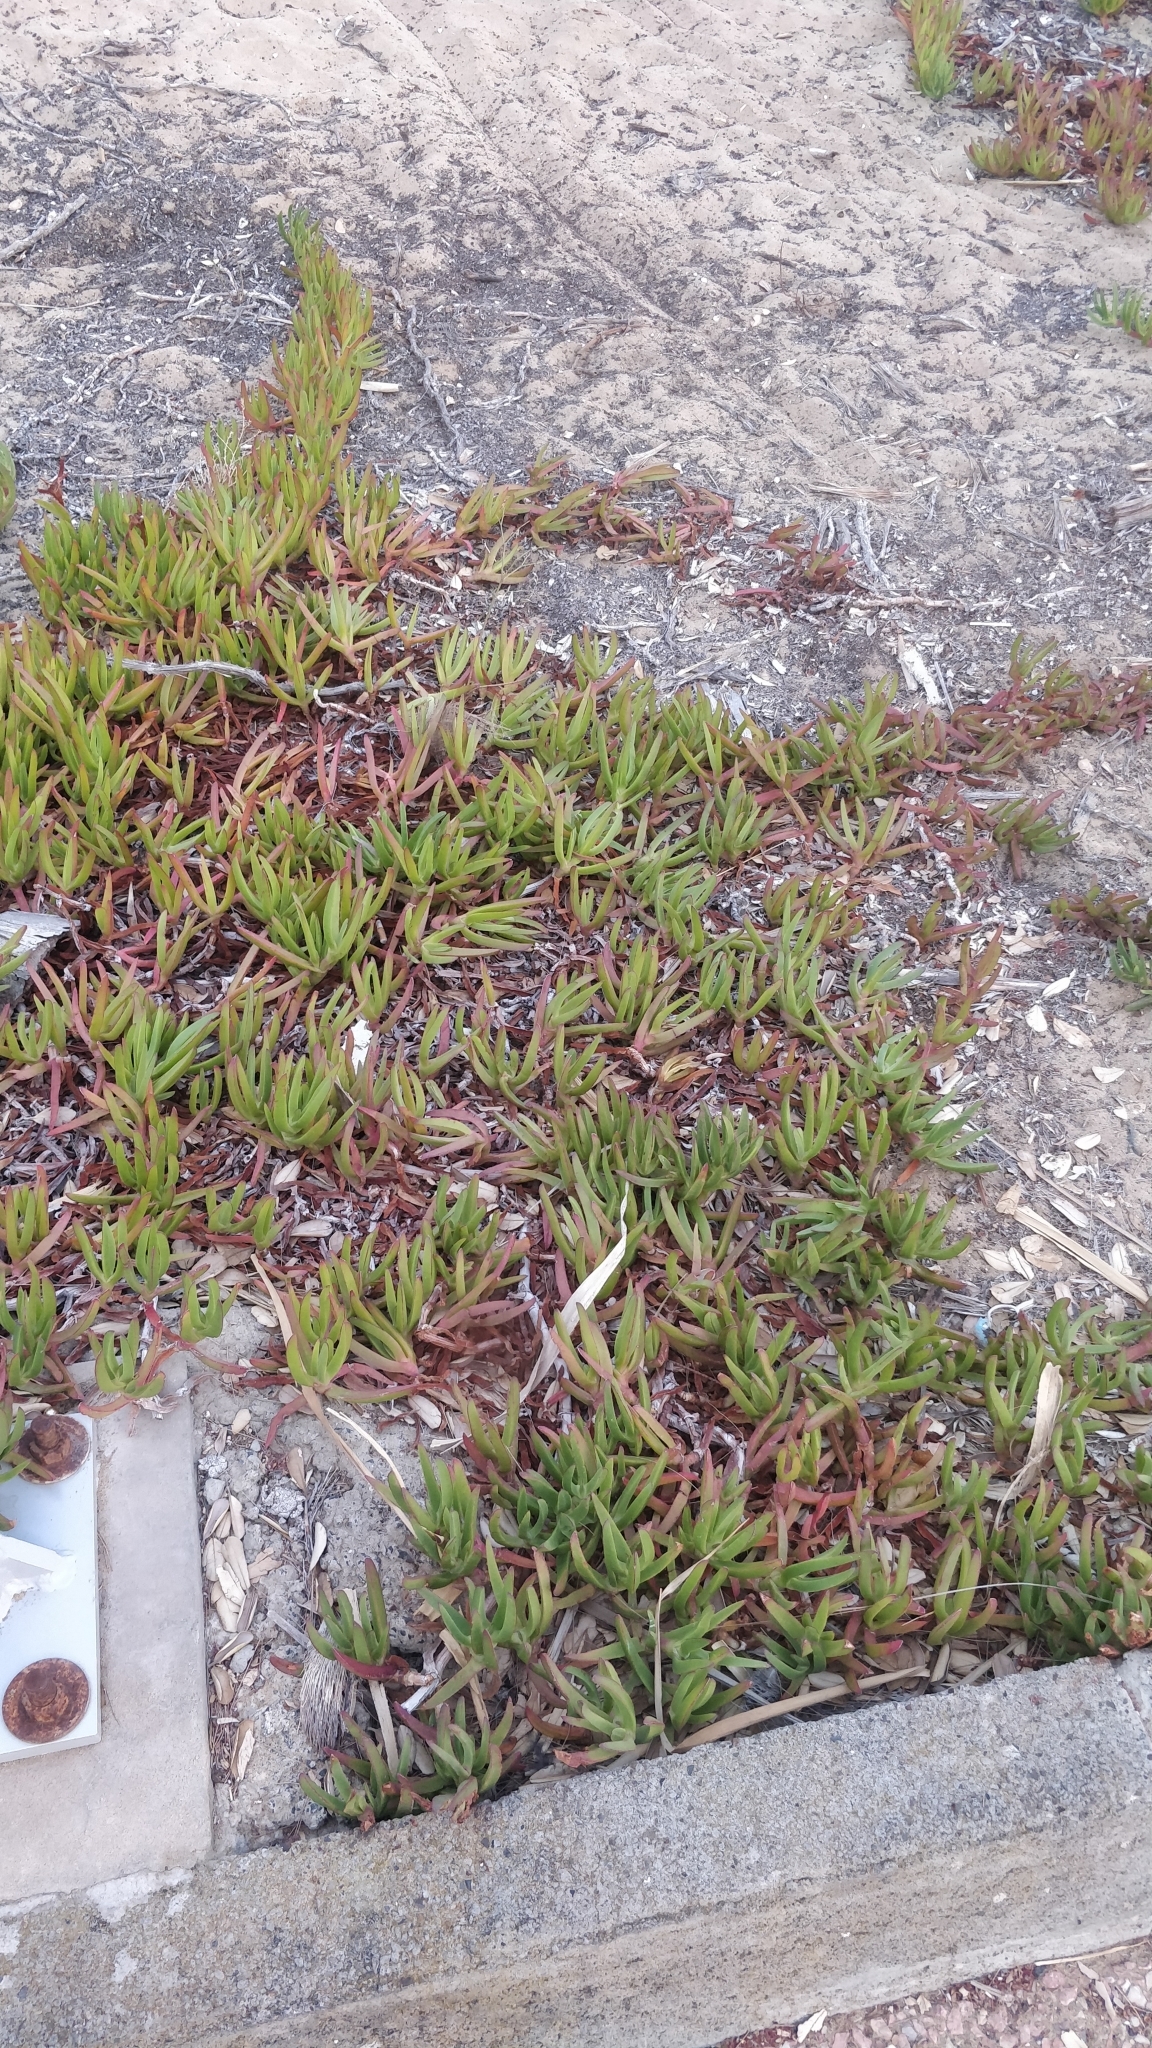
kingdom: Plantae
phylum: Tracheophyta
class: Magnoliopsida
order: Caryophyllales
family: Aizoaceae
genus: Carpobrotus
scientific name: Carpobrotus edulis
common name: Hottentot-fig
